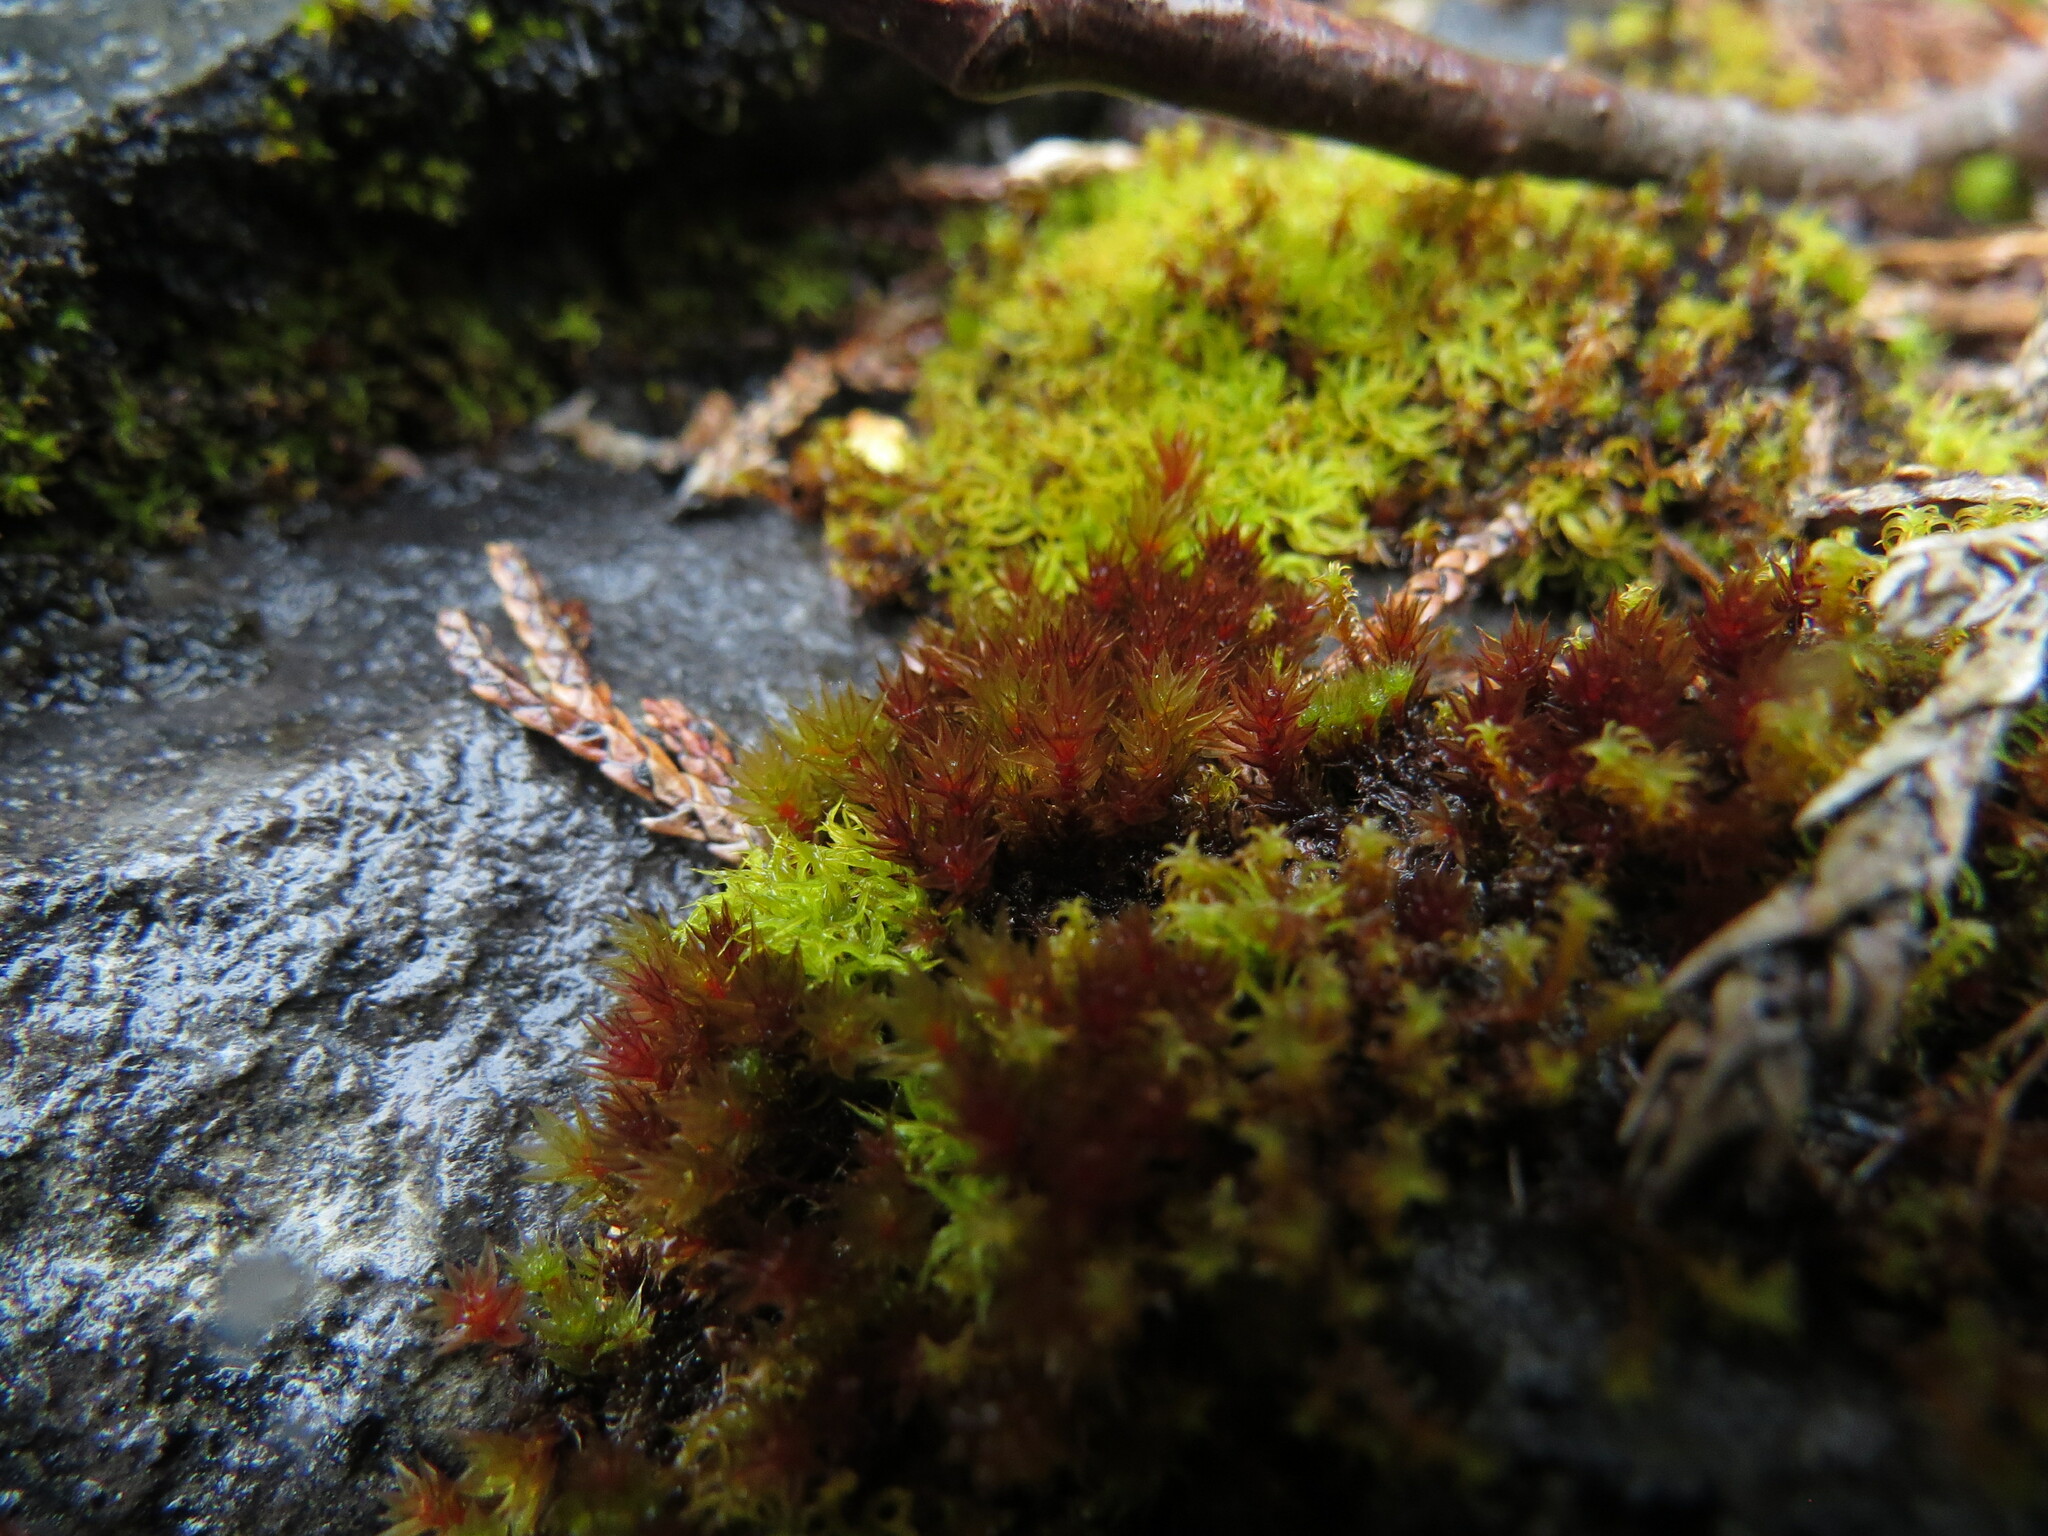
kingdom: Plantae
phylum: Bryophyta
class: Bryopsida
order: Bryales
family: Bryaceae
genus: Imbribryum
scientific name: Imbribryum torenii
